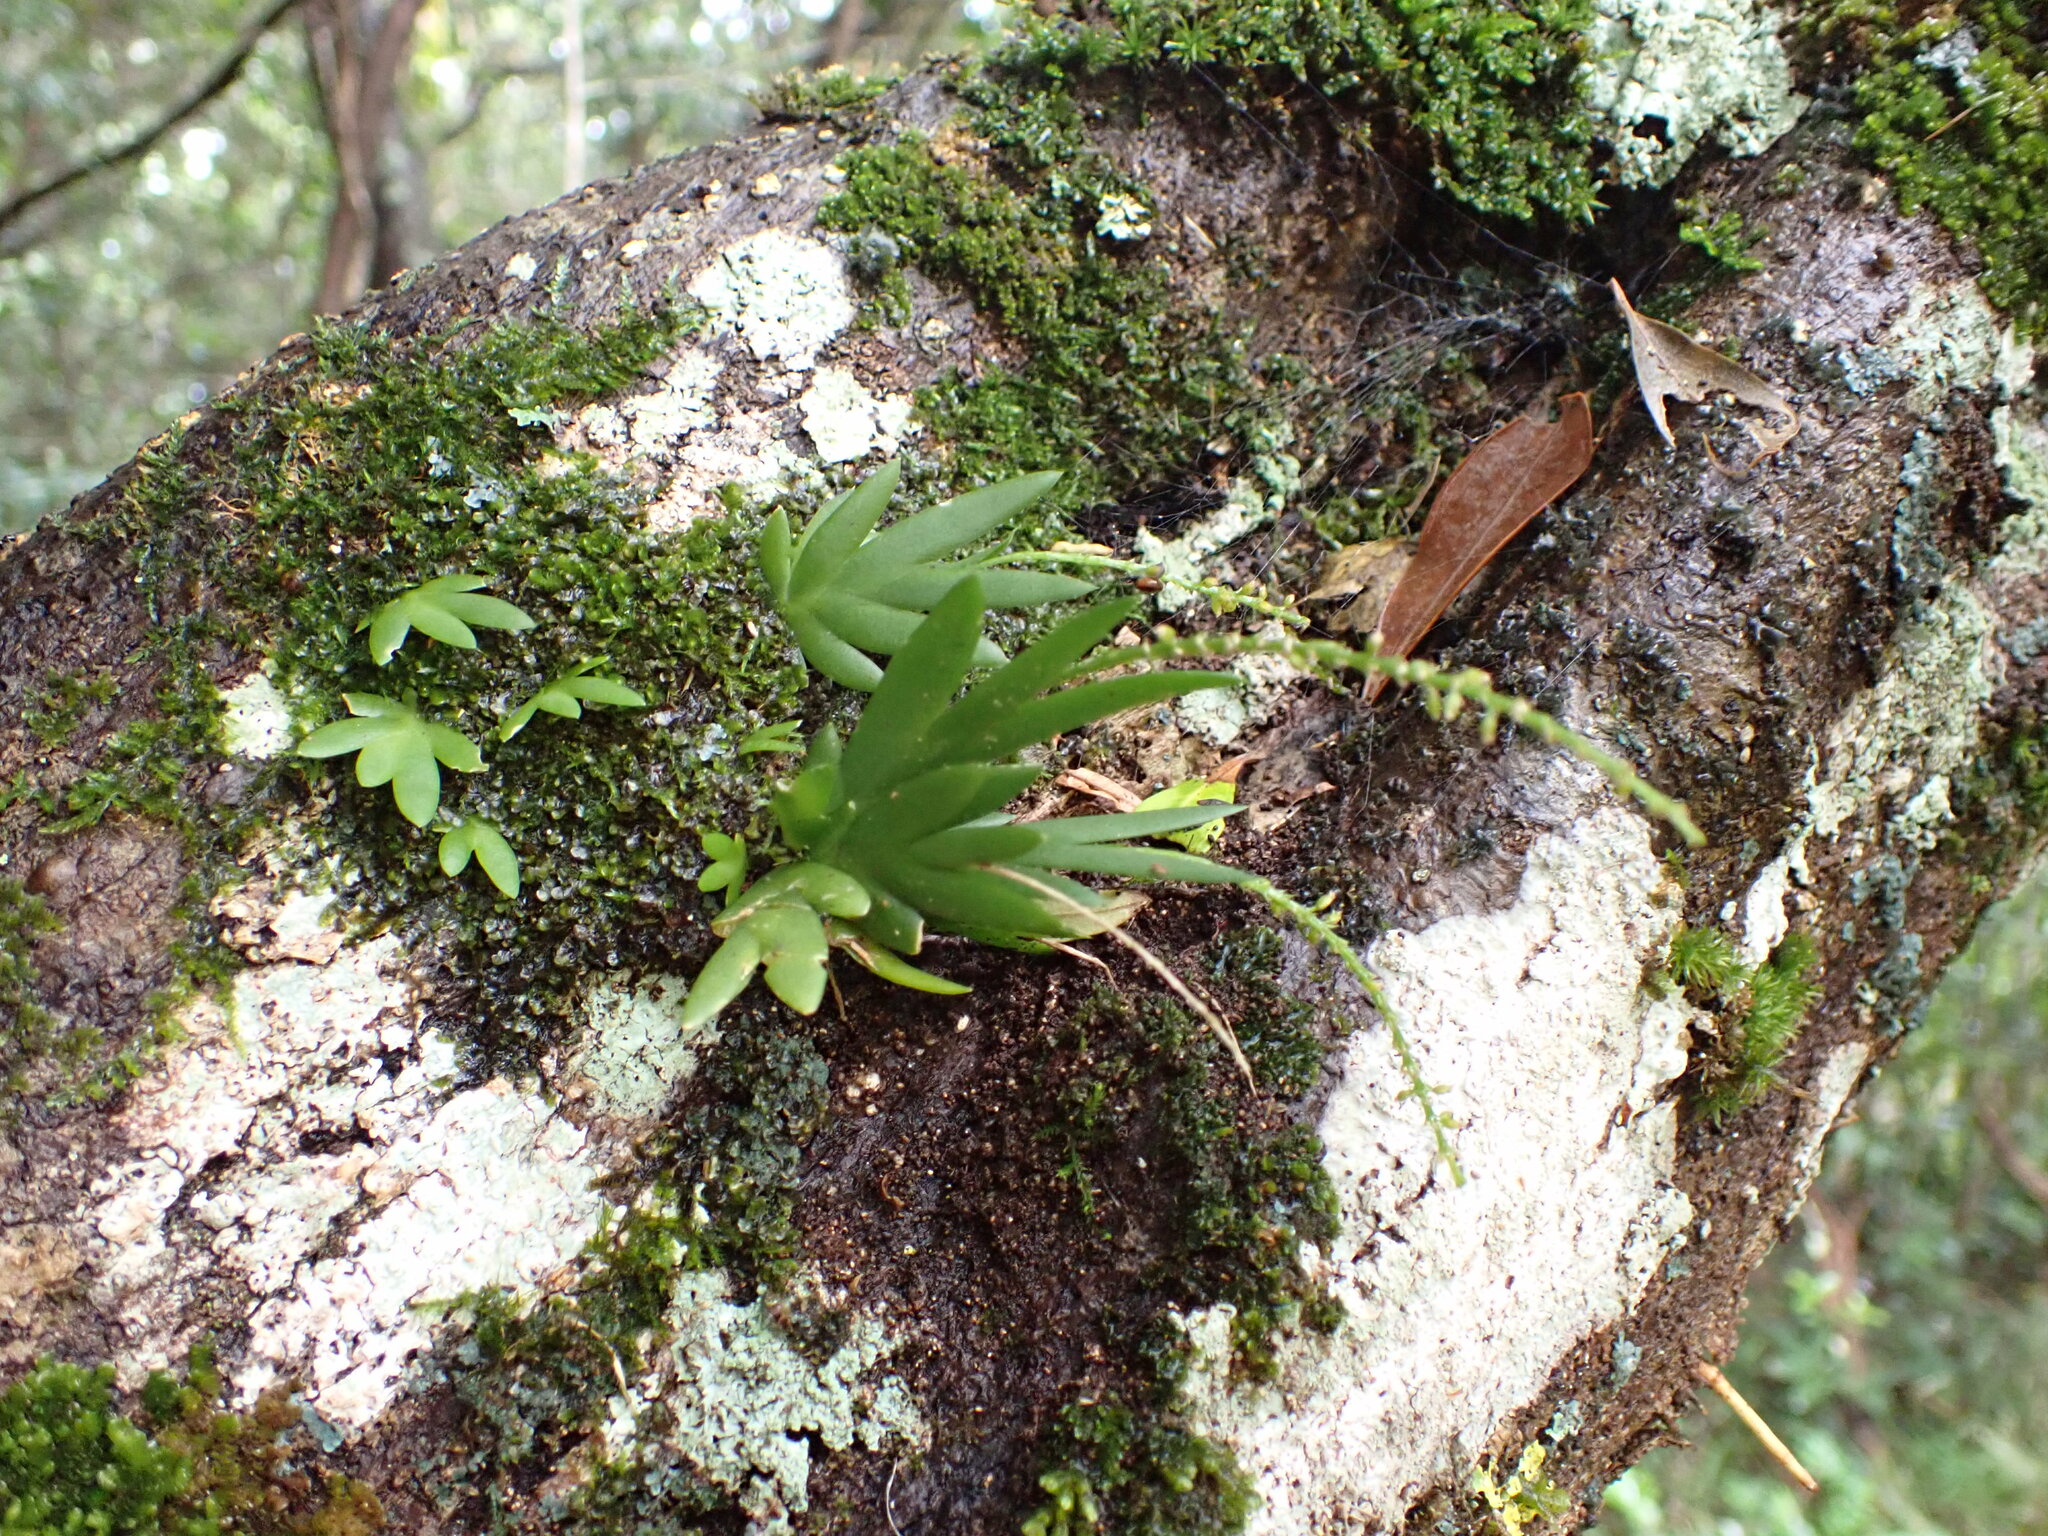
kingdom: Plantae
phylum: Tracheophyta
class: Liliopsida
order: Asparagales
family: Orchidaceae
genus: Oberonia
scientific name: Oberonia titania
